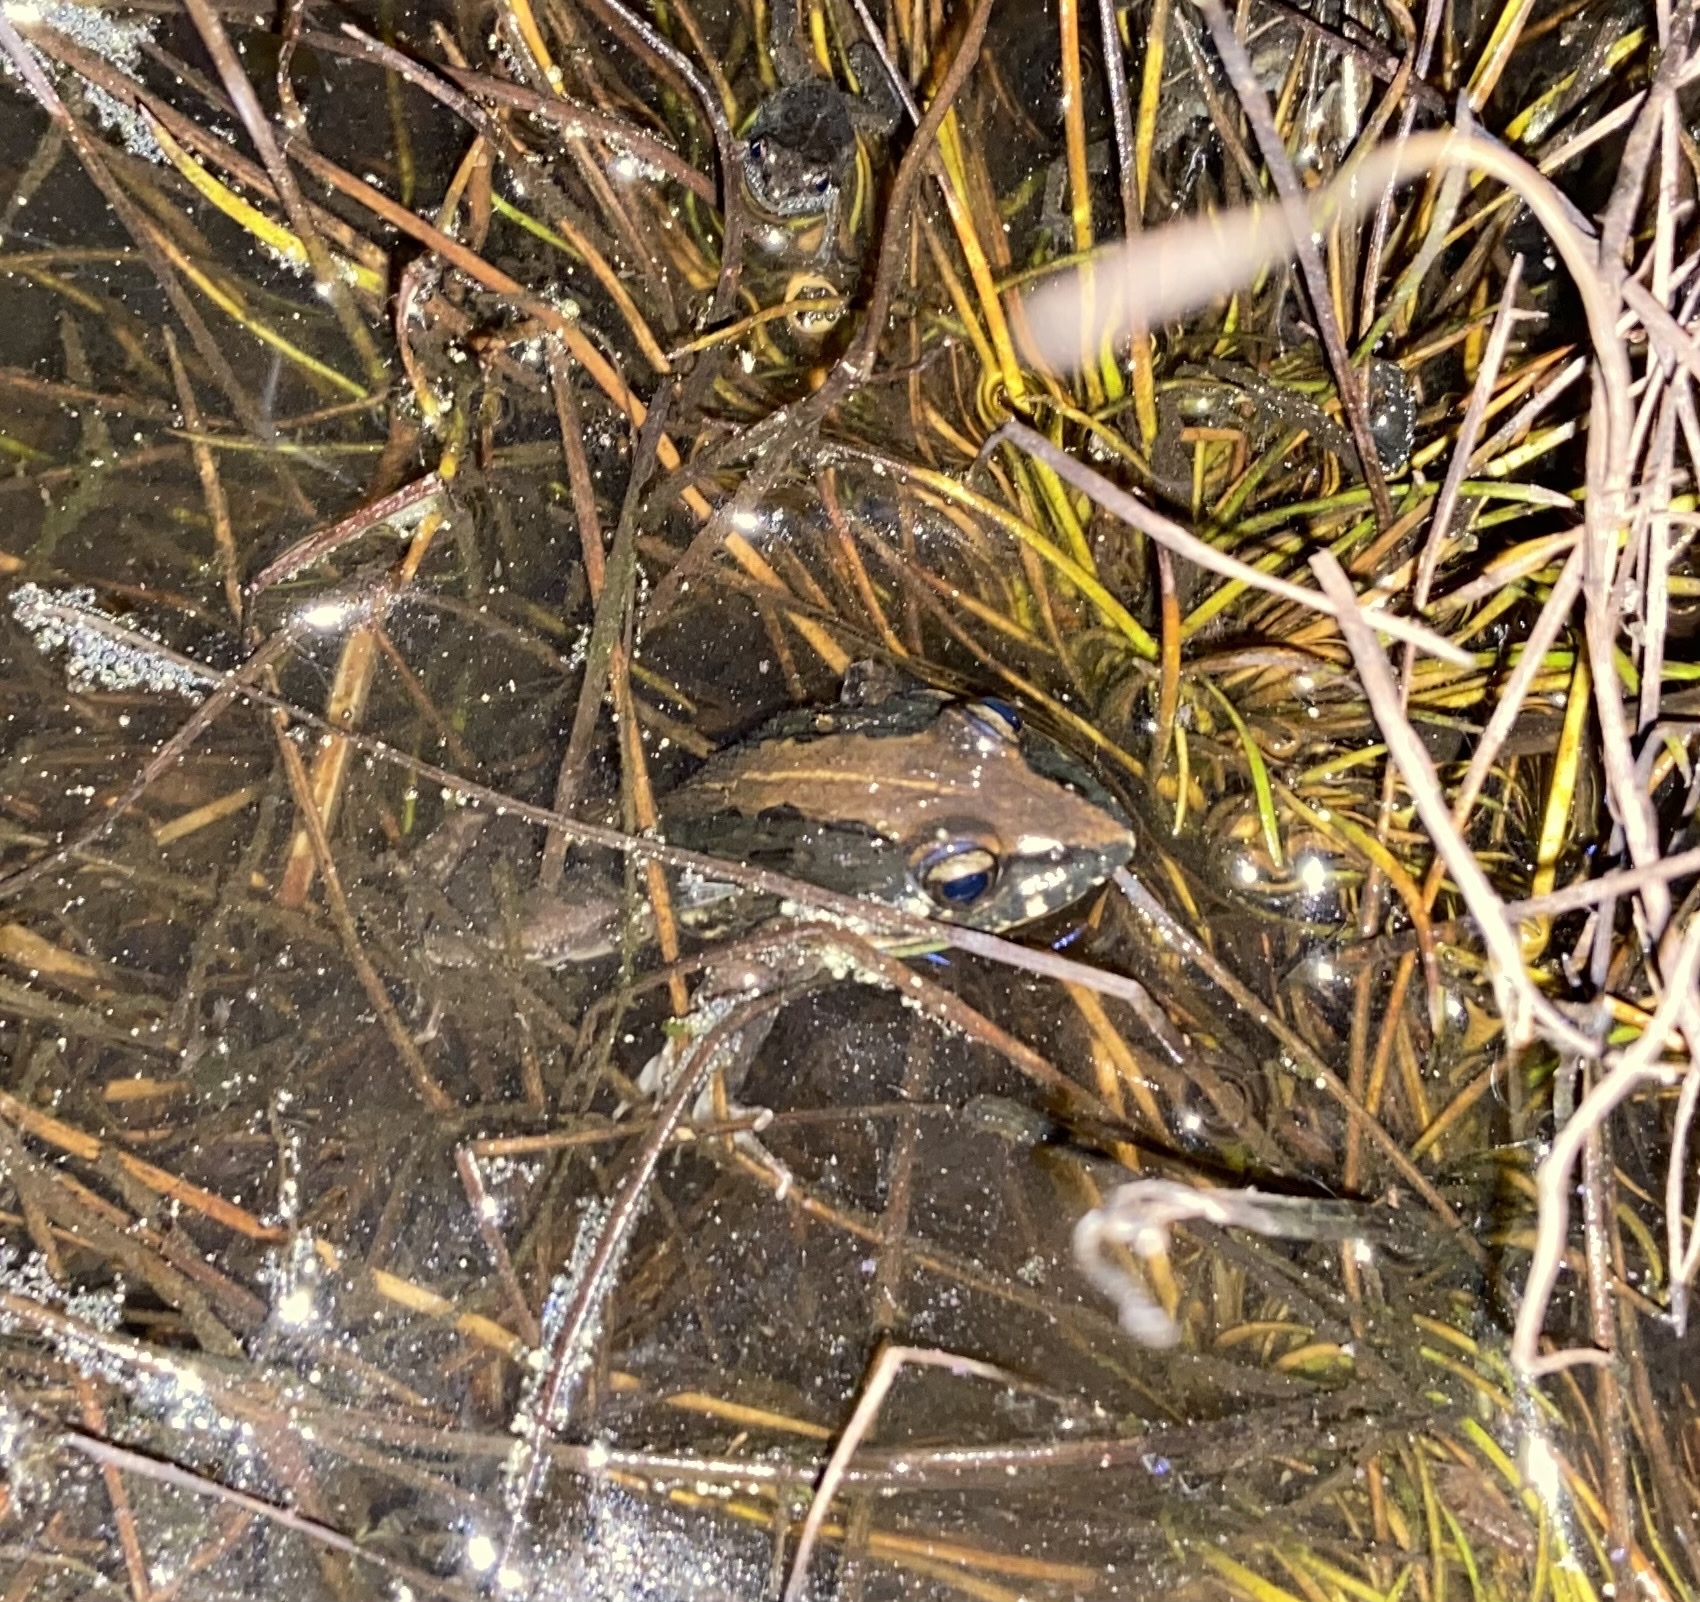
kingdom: Animalia
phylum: Chordata
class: Amphibia
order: Anura
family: Pyxicephalidae
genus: Strongylopus
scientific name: Strongylopus grayii
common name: Gray's stream frog
